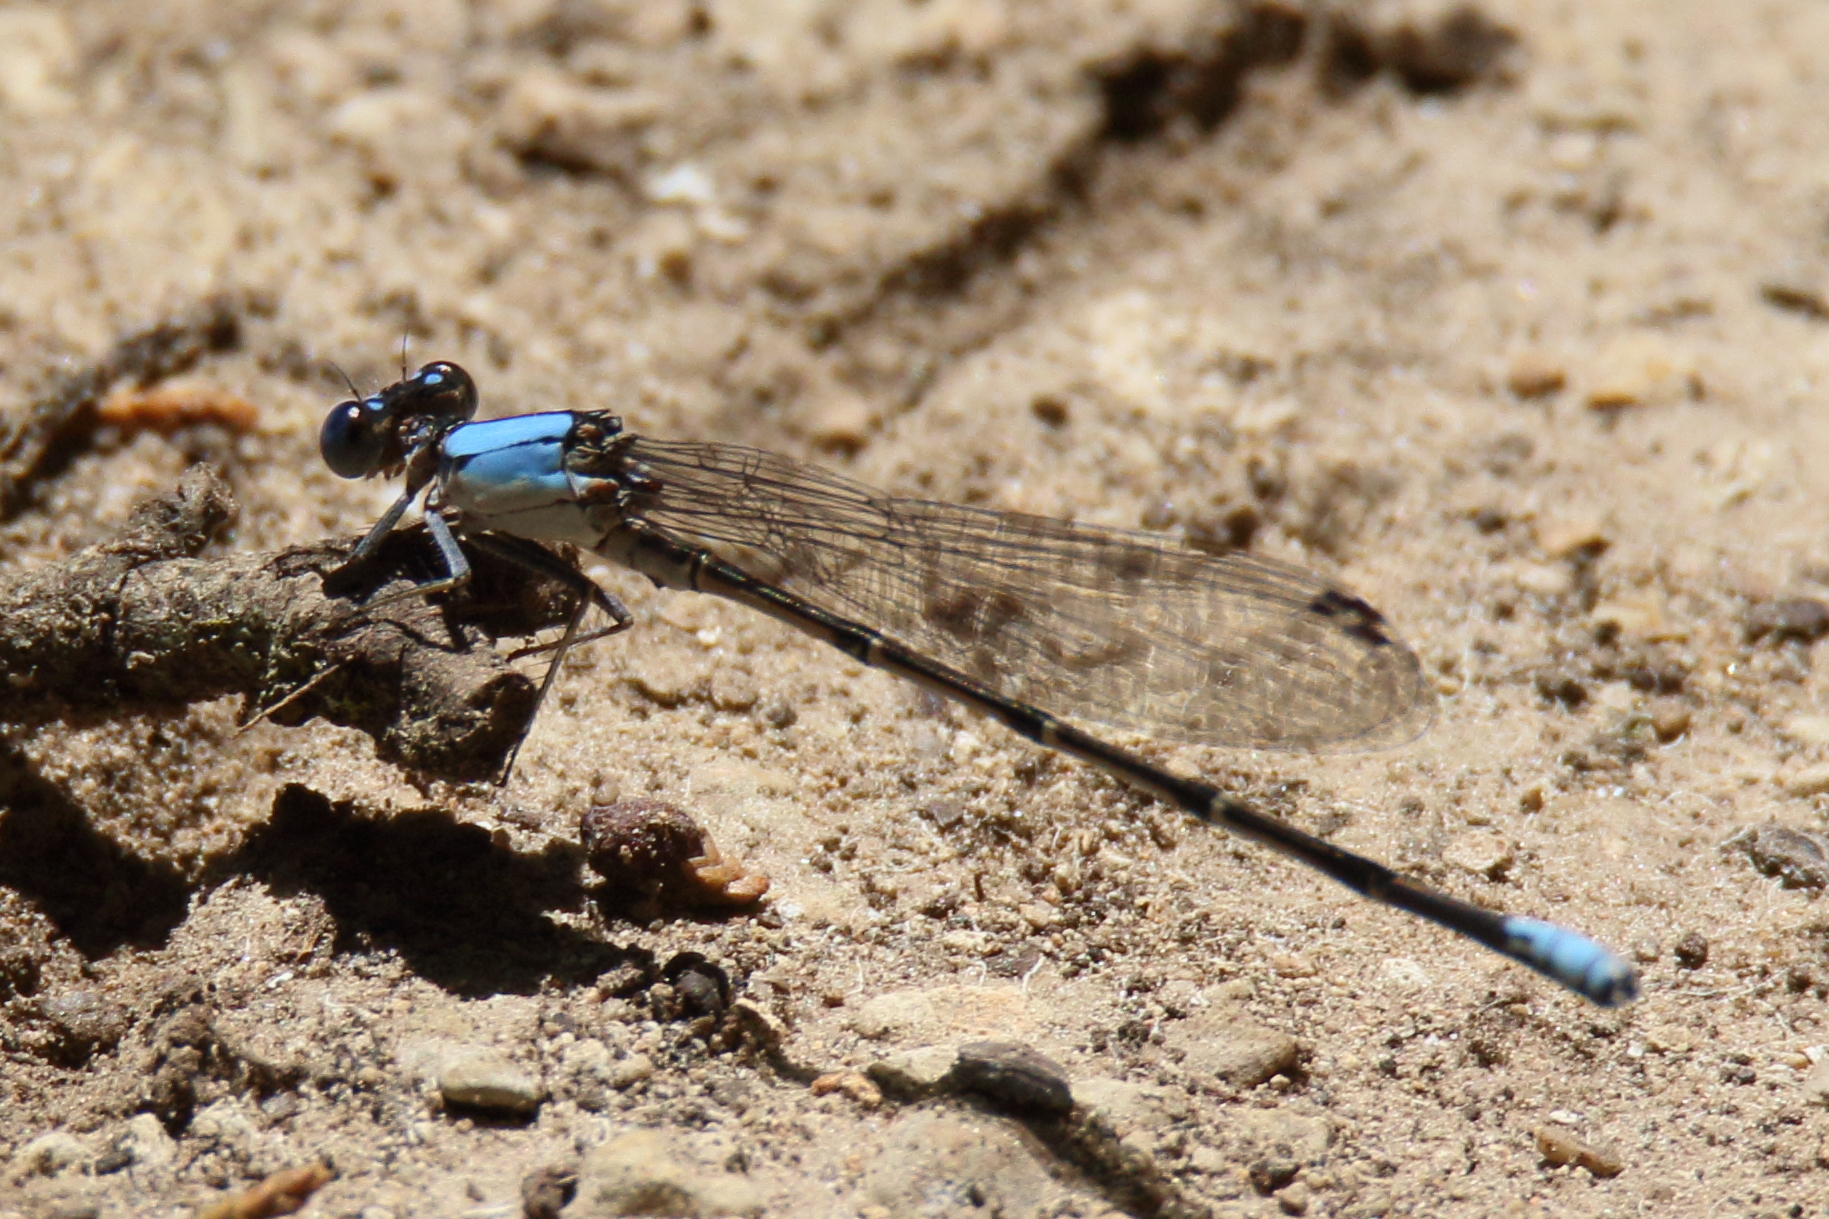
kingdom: Animalia
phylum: Arthropoda
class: Insecta
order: Odonata
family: Coenagrionidae
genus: Argia
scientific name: Argia apicalis
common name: Blue-fronted dancer
